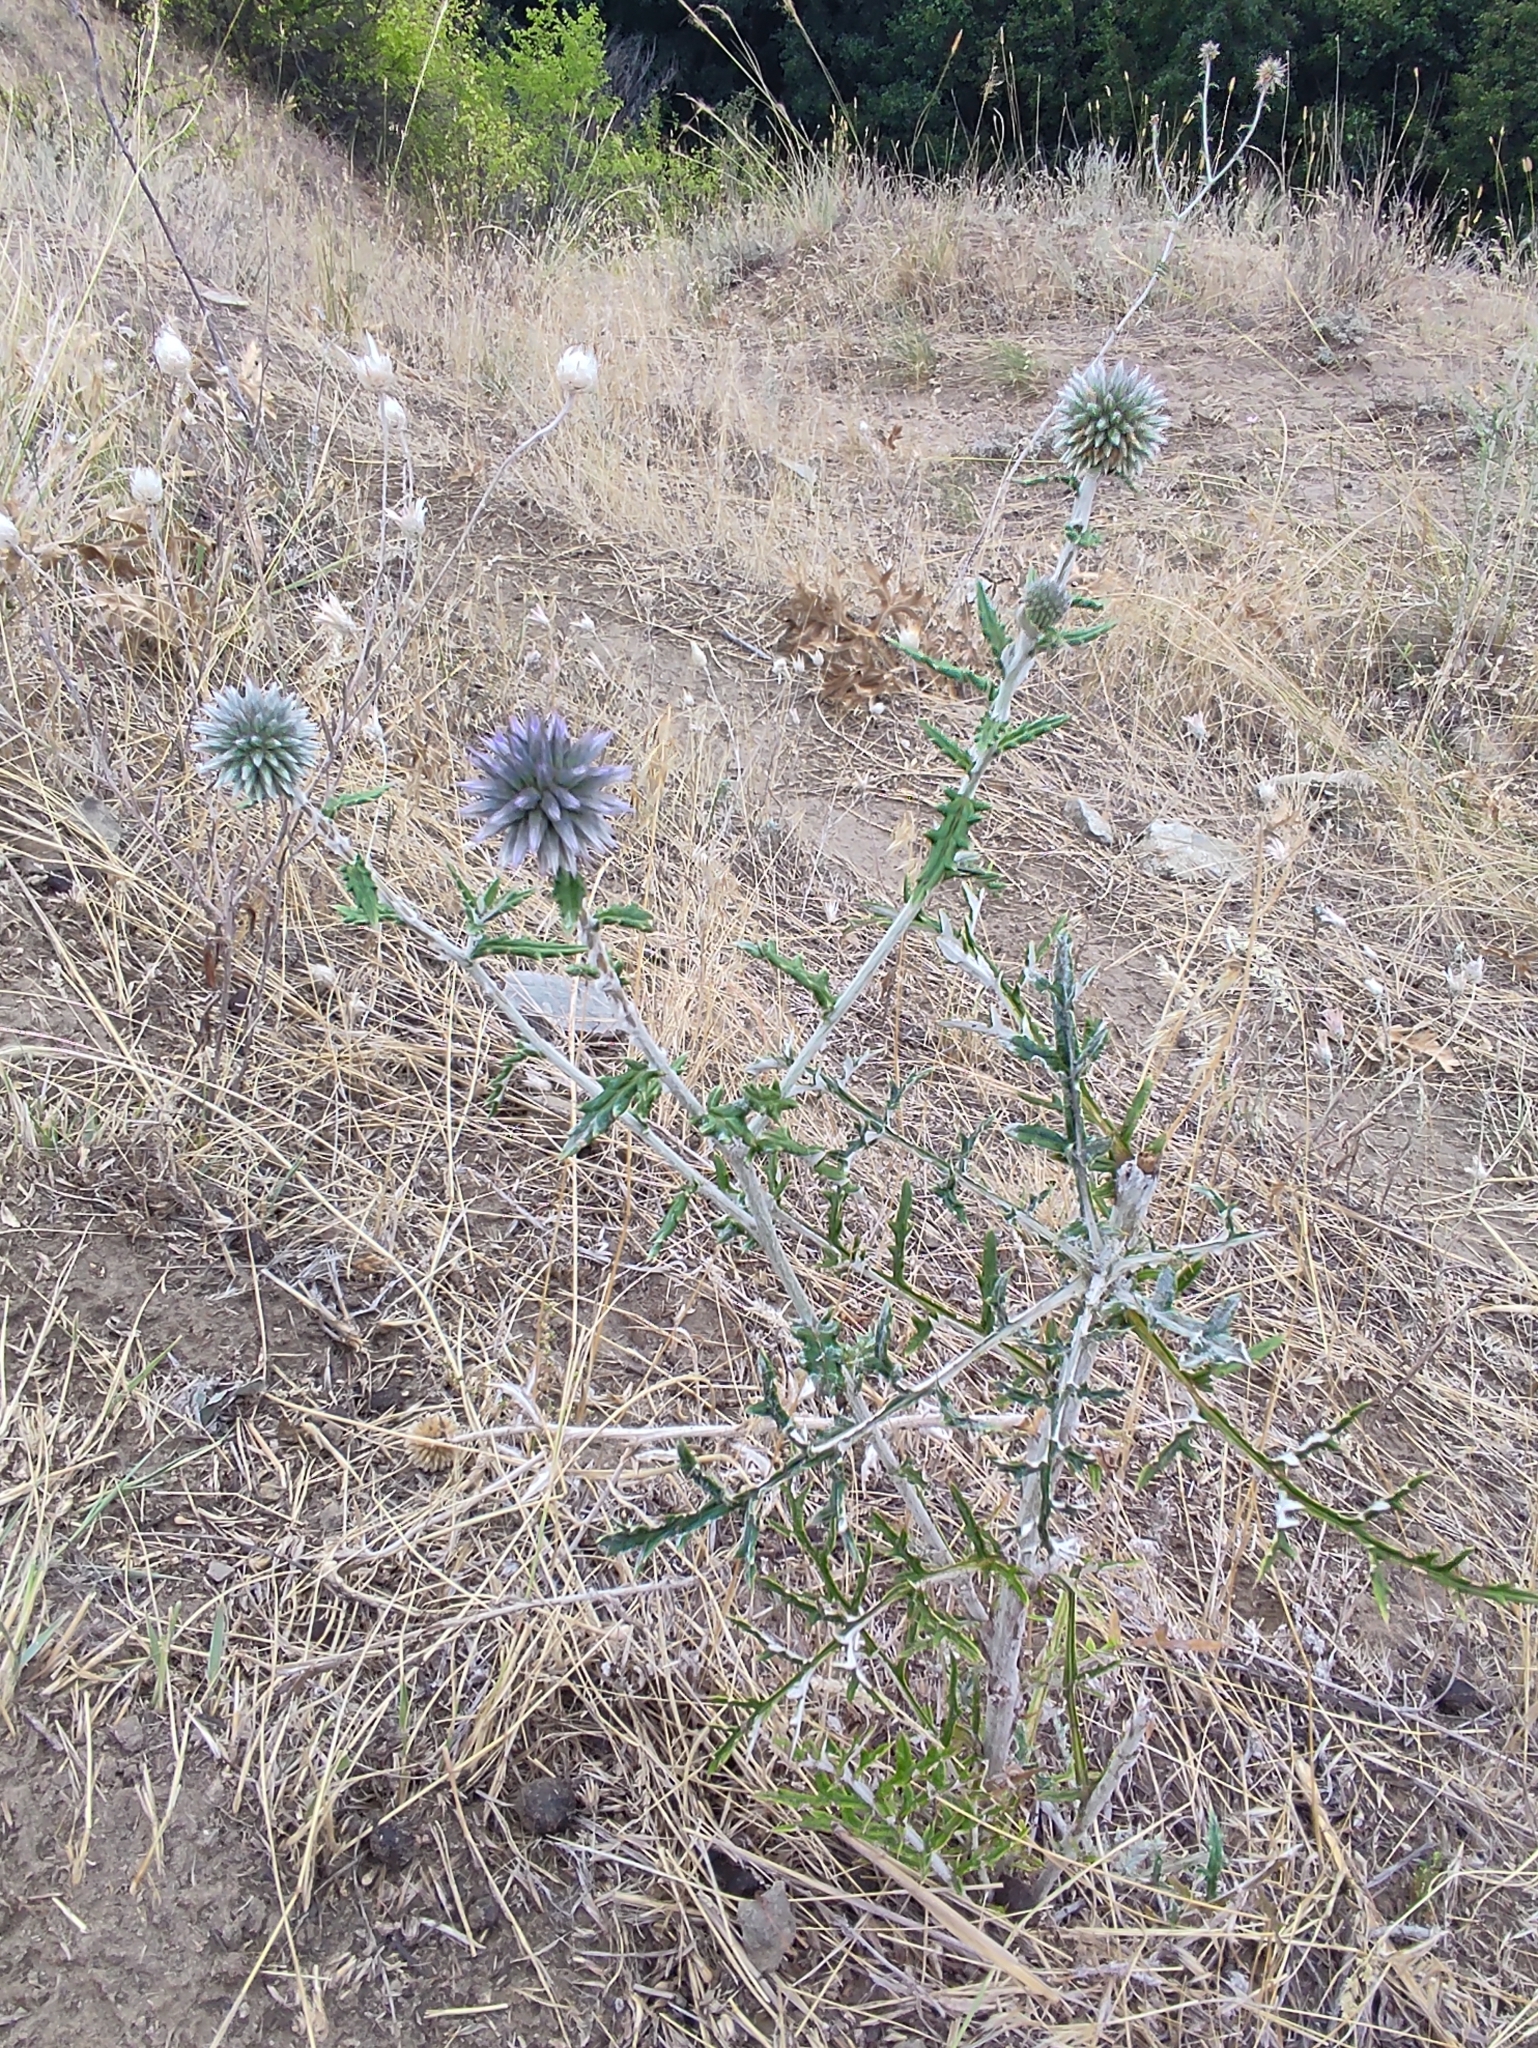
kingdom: Plantae
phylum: Tracheophyta
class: Magnoliopsida
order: Asterales
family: Asteraceae
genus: Echinops
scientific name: Echinops ritro
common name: Globe thistle
